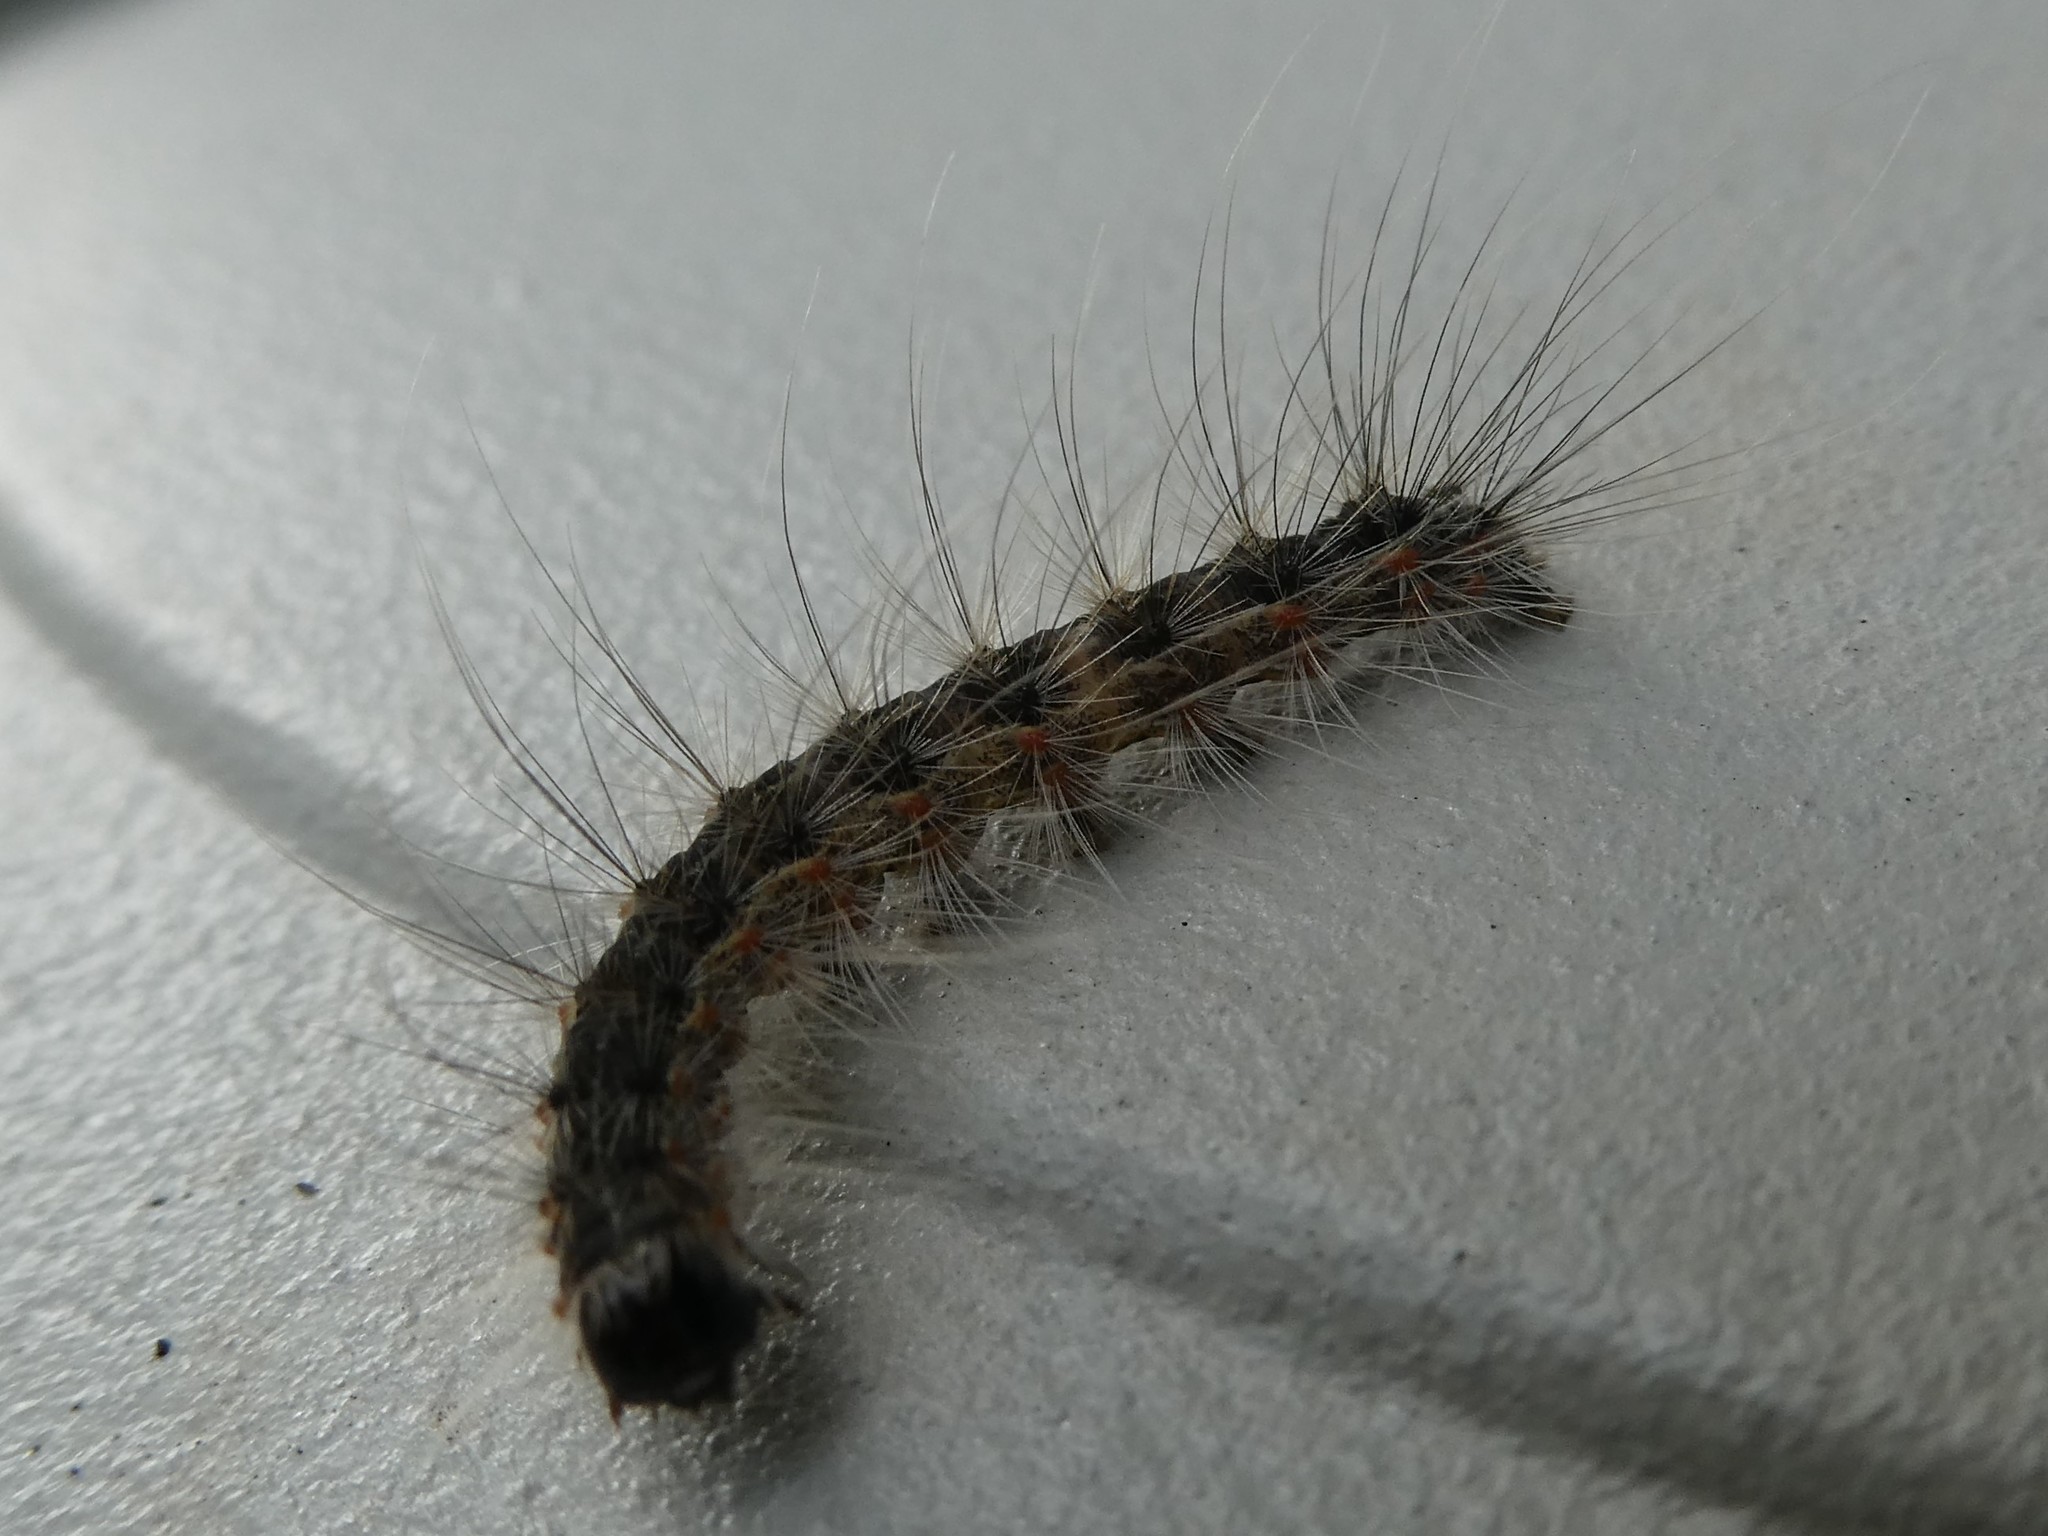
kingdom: Animalia
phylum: Arthropoda
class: Insecta
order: Lepidoptera
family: Erebidae
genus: Hyphantria
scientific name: Hyphantria cunea
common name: American white moth
